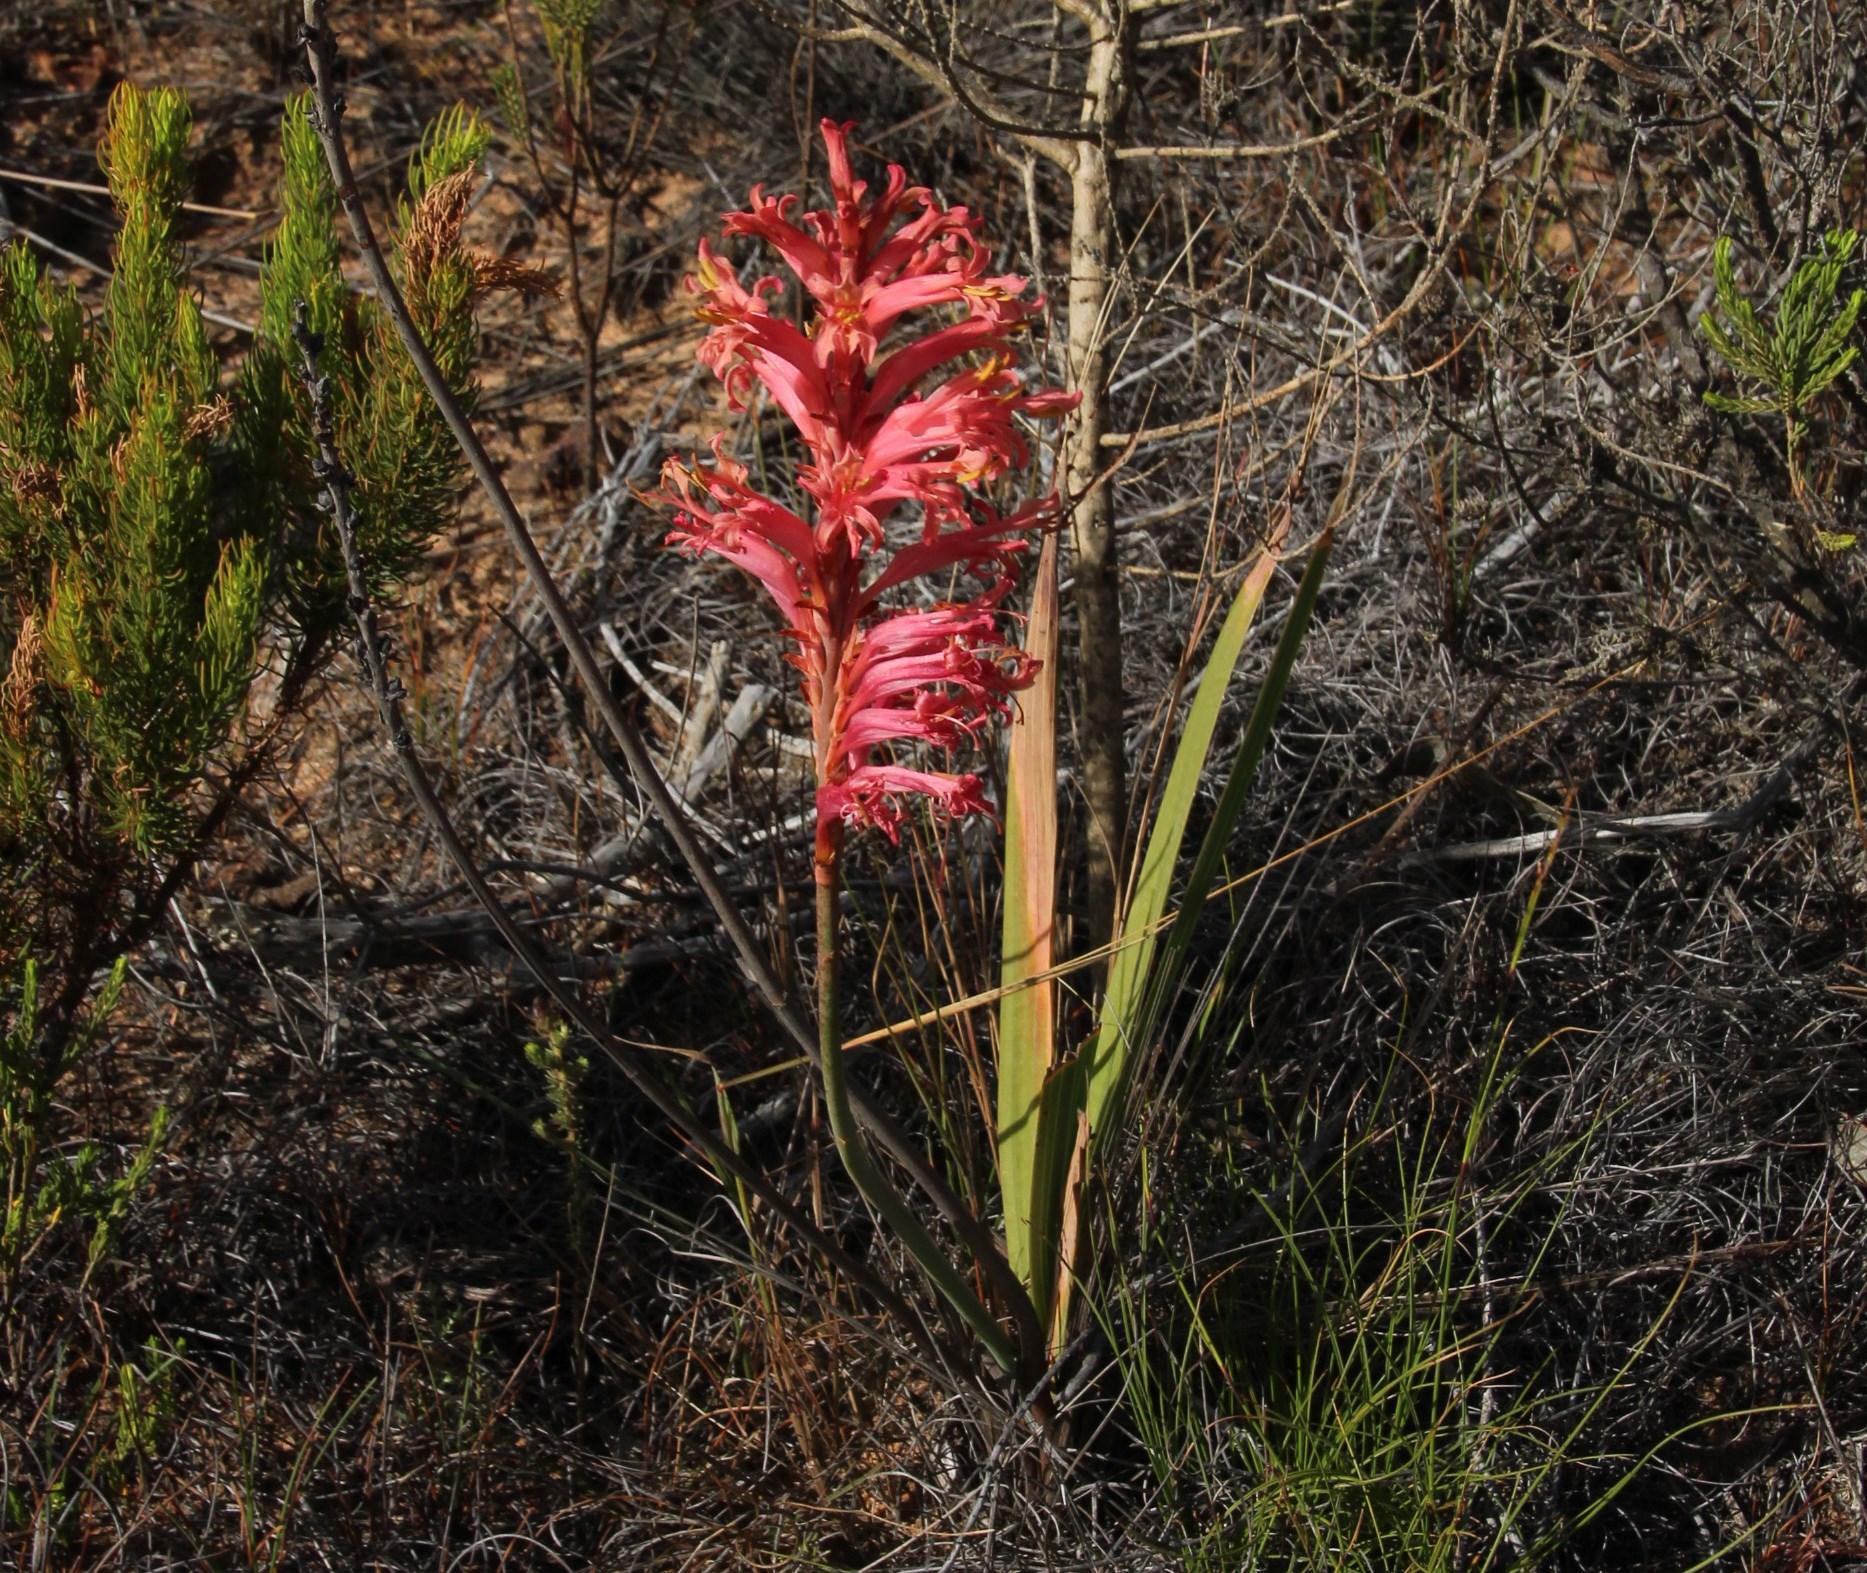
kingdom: Plantae
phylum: Tracheophyta
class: Liliopsida
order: Asparagales
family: Iridaceae
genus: Tritoniopsis
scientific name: Tritoniopsis antholyza
